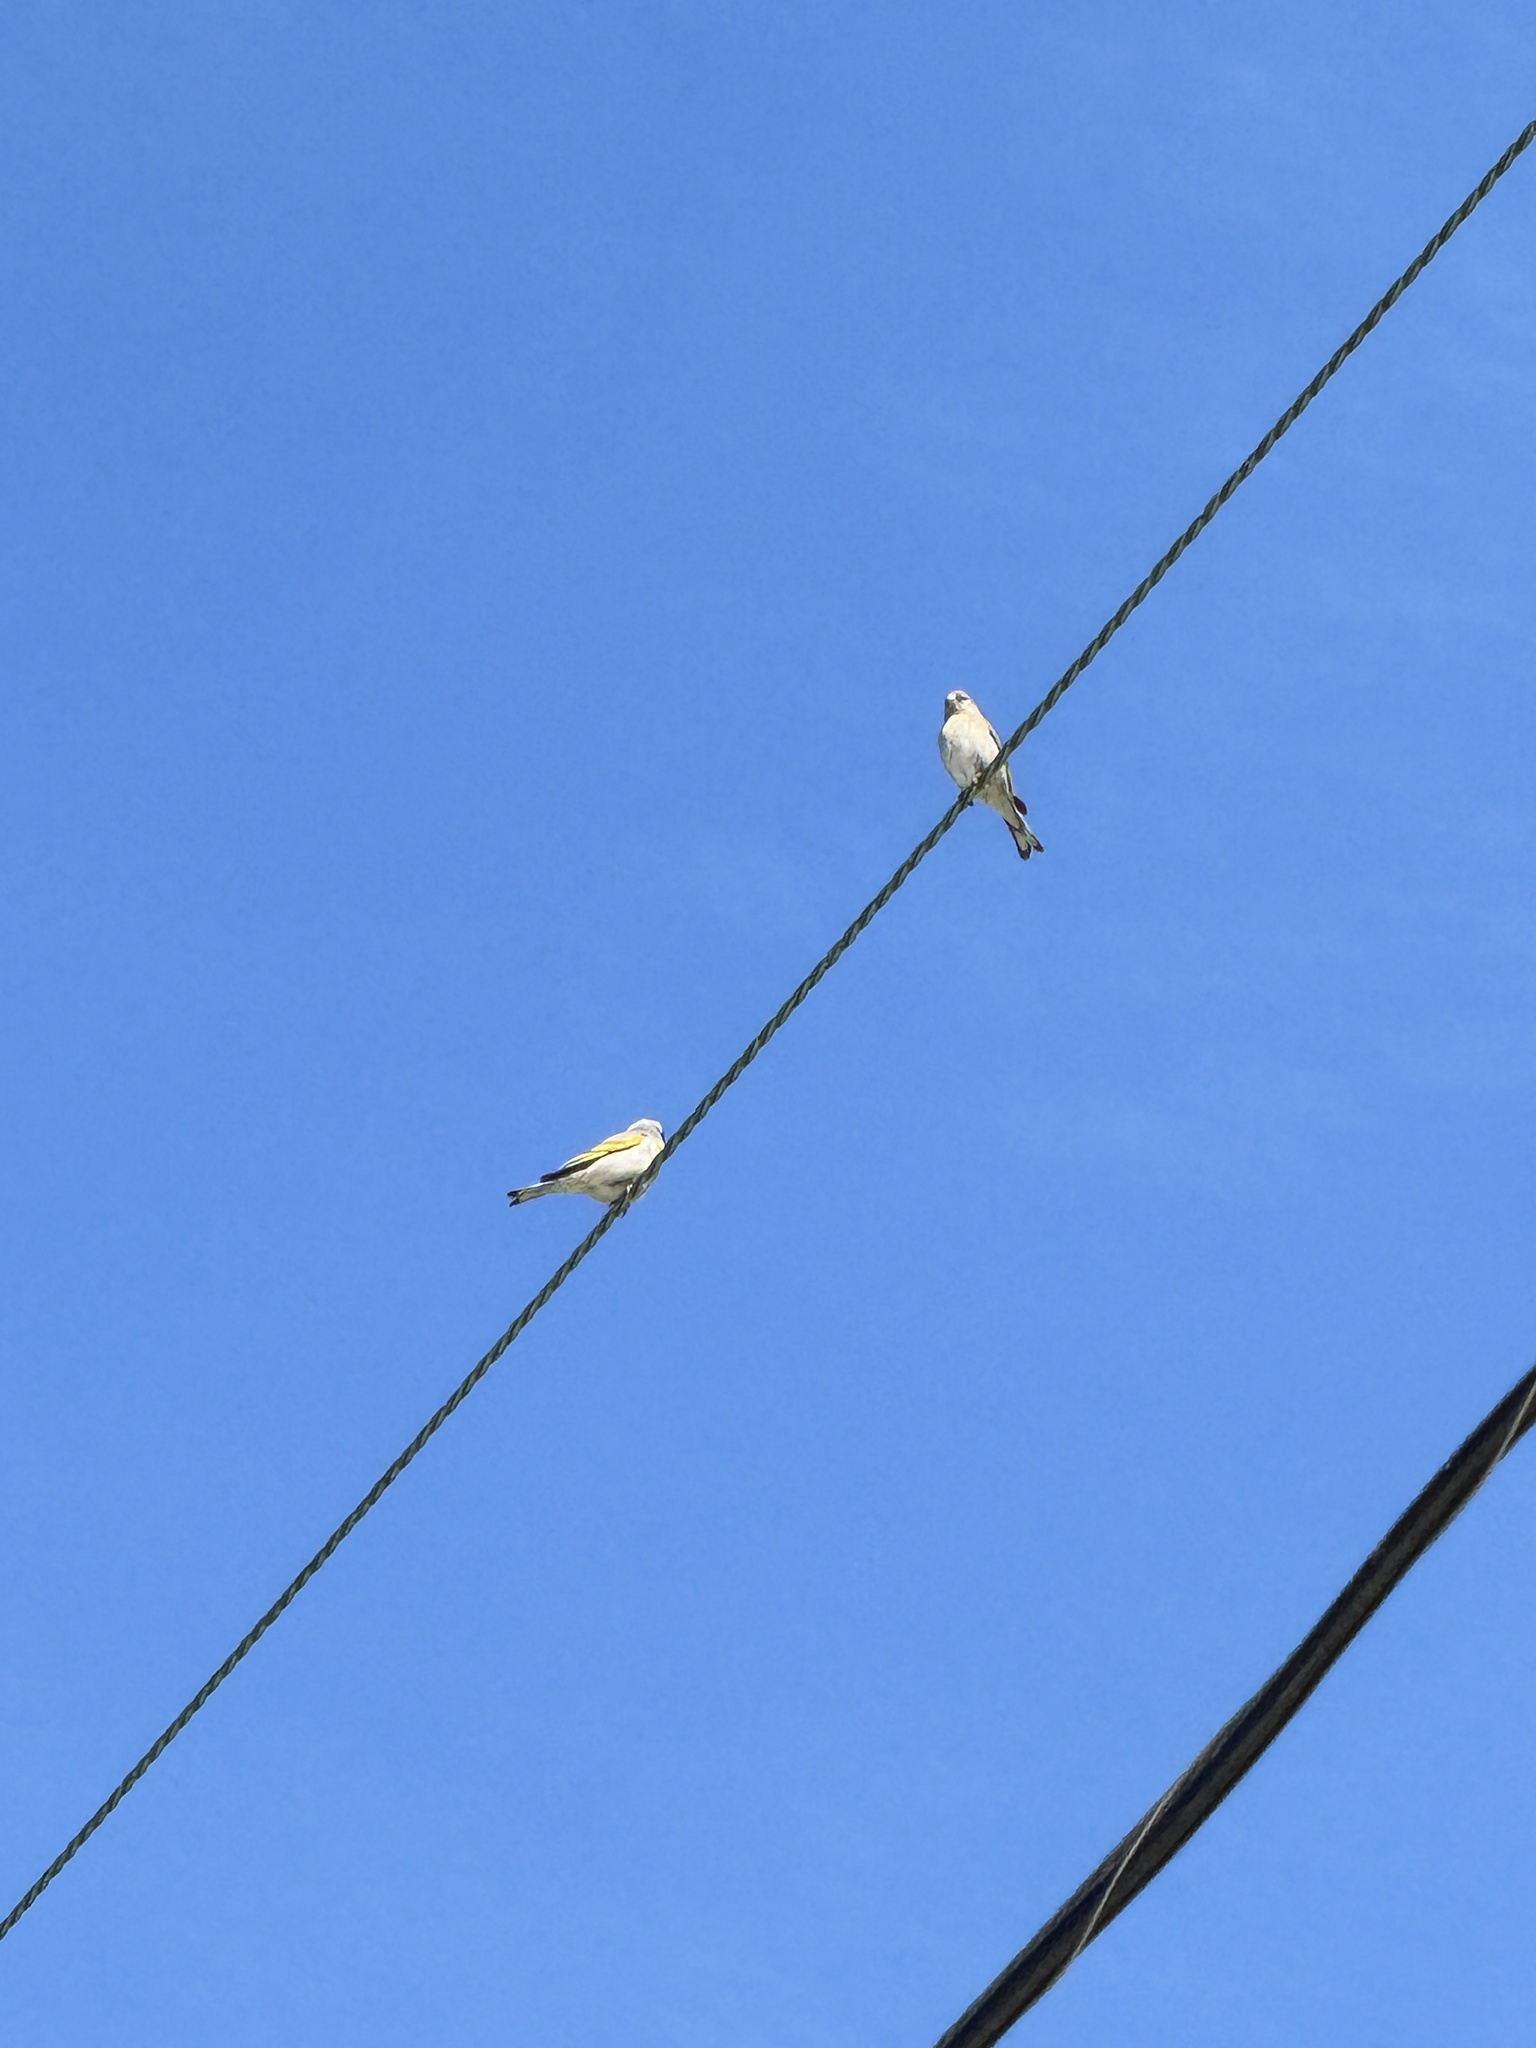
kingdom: Animalia
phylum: Chordata
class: Aves
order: Passeriformes
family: Fringillidae
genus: Spinus
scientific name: Spinus lawrencei
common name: Lawrence's goldfinch
